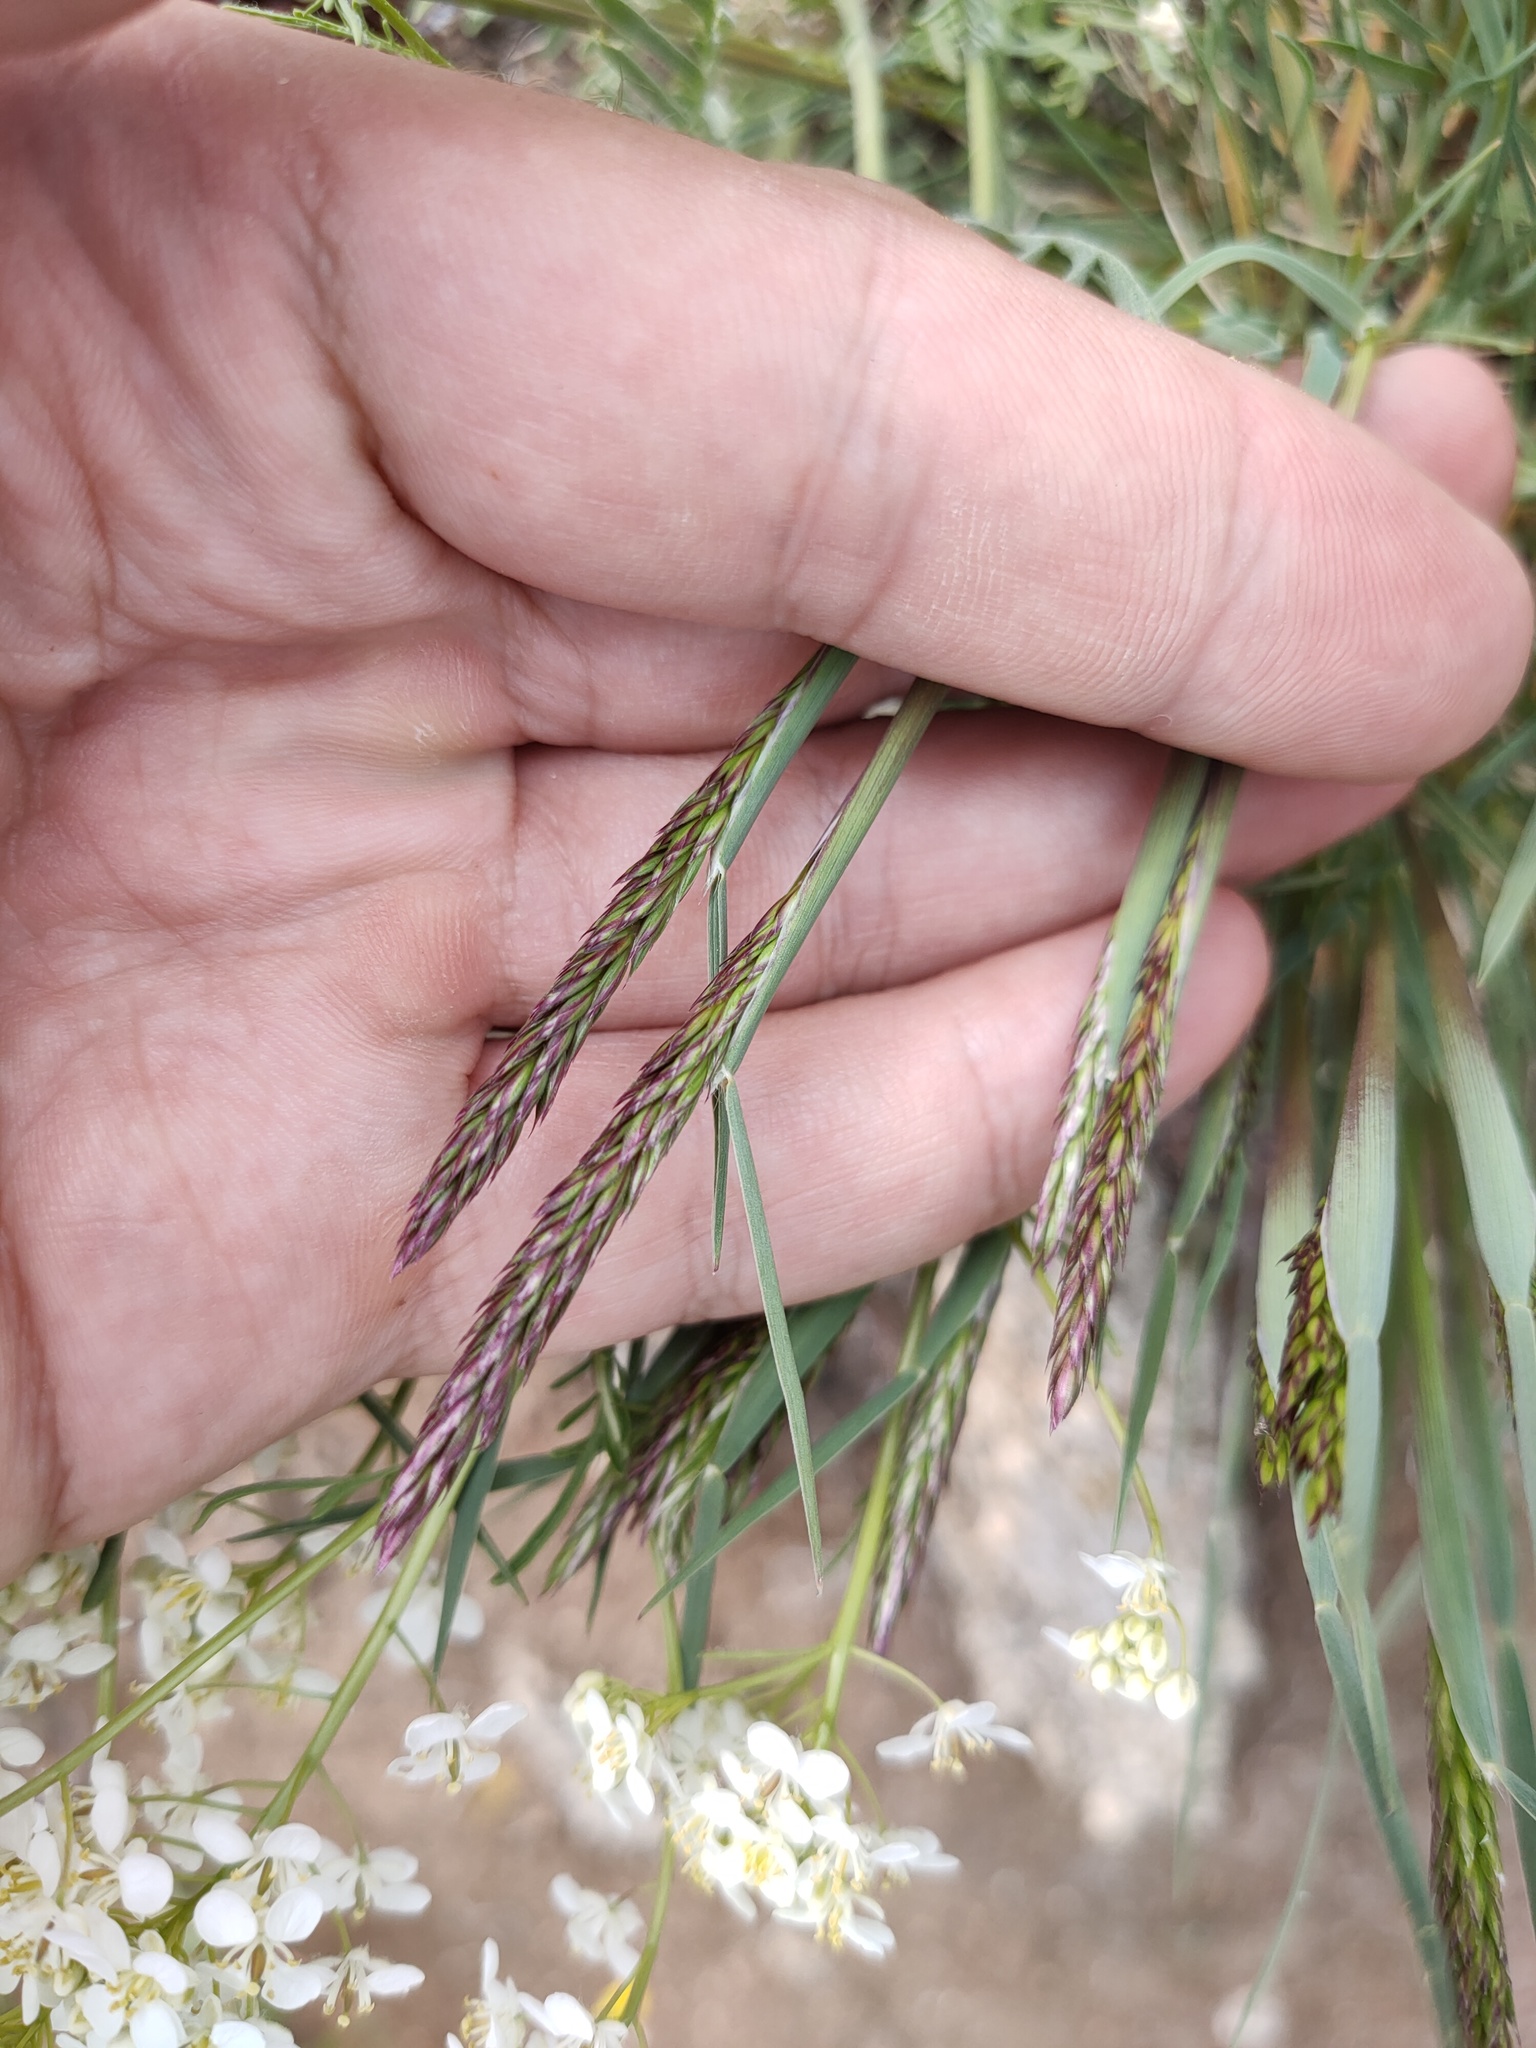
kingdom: Plantae
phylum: Tracheophyta
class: Liliopsida
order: Poales
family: Poaceae
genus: Koeleria
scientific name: Koeleria macrantha
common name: Crested hair-grass
